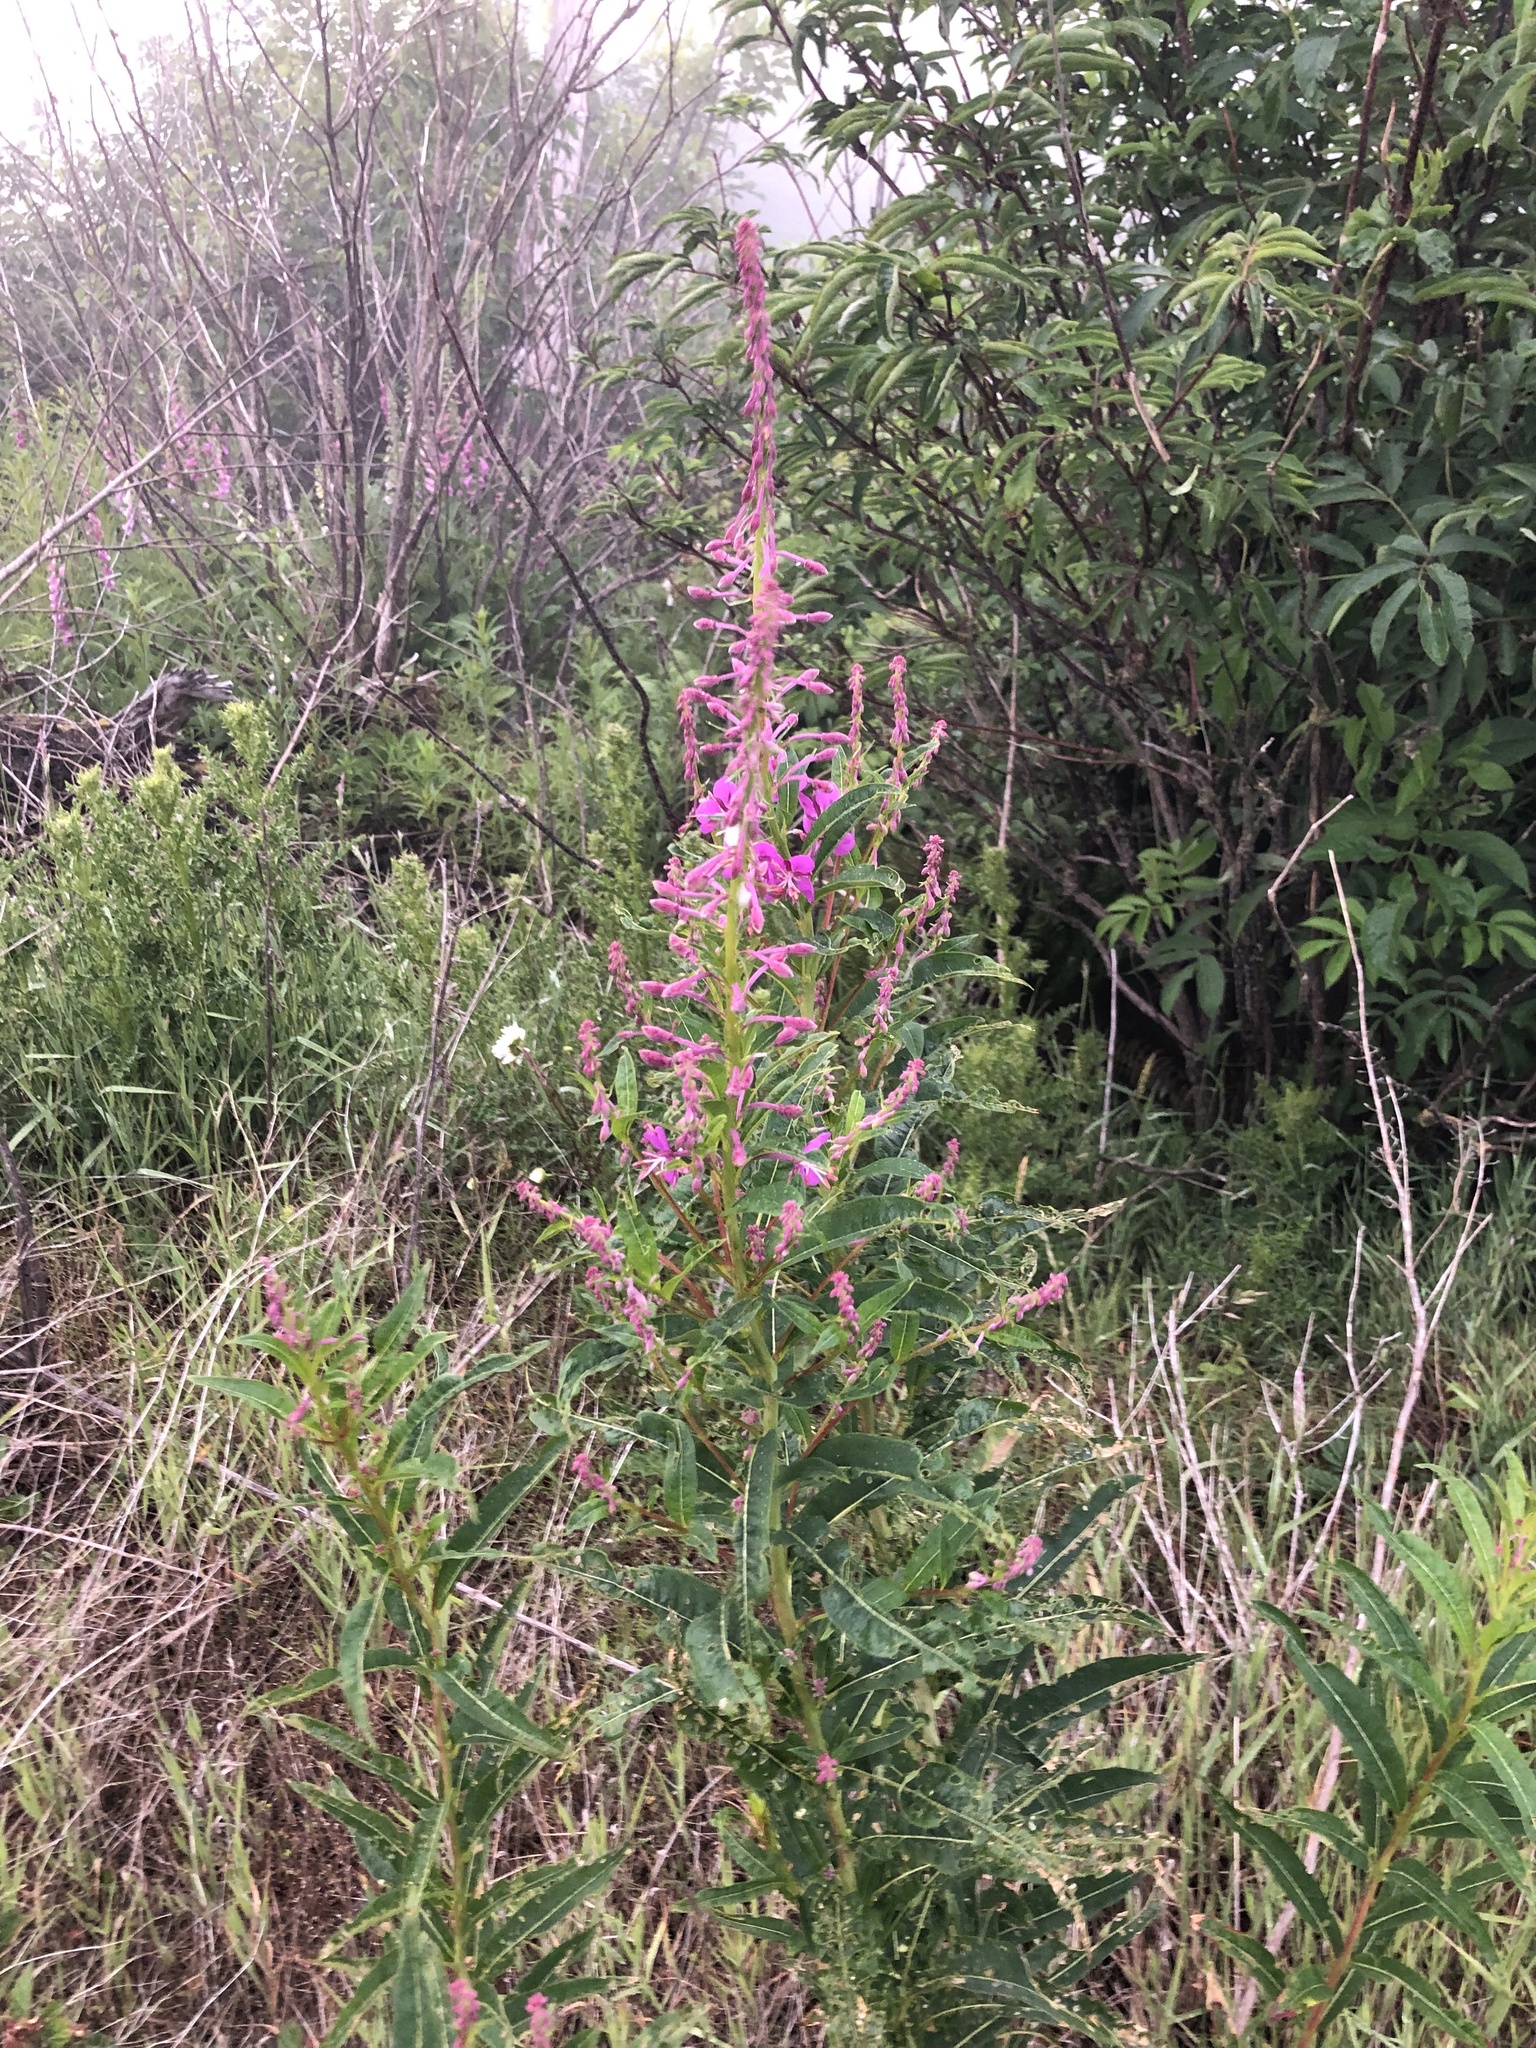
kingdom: Plantae
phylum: Tracheophyta
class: Magnoliopsida
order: Myrtales
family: Onagraceae
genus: Chamaenerion
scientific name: Chamaenerion angustifolium
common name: Fireweed
